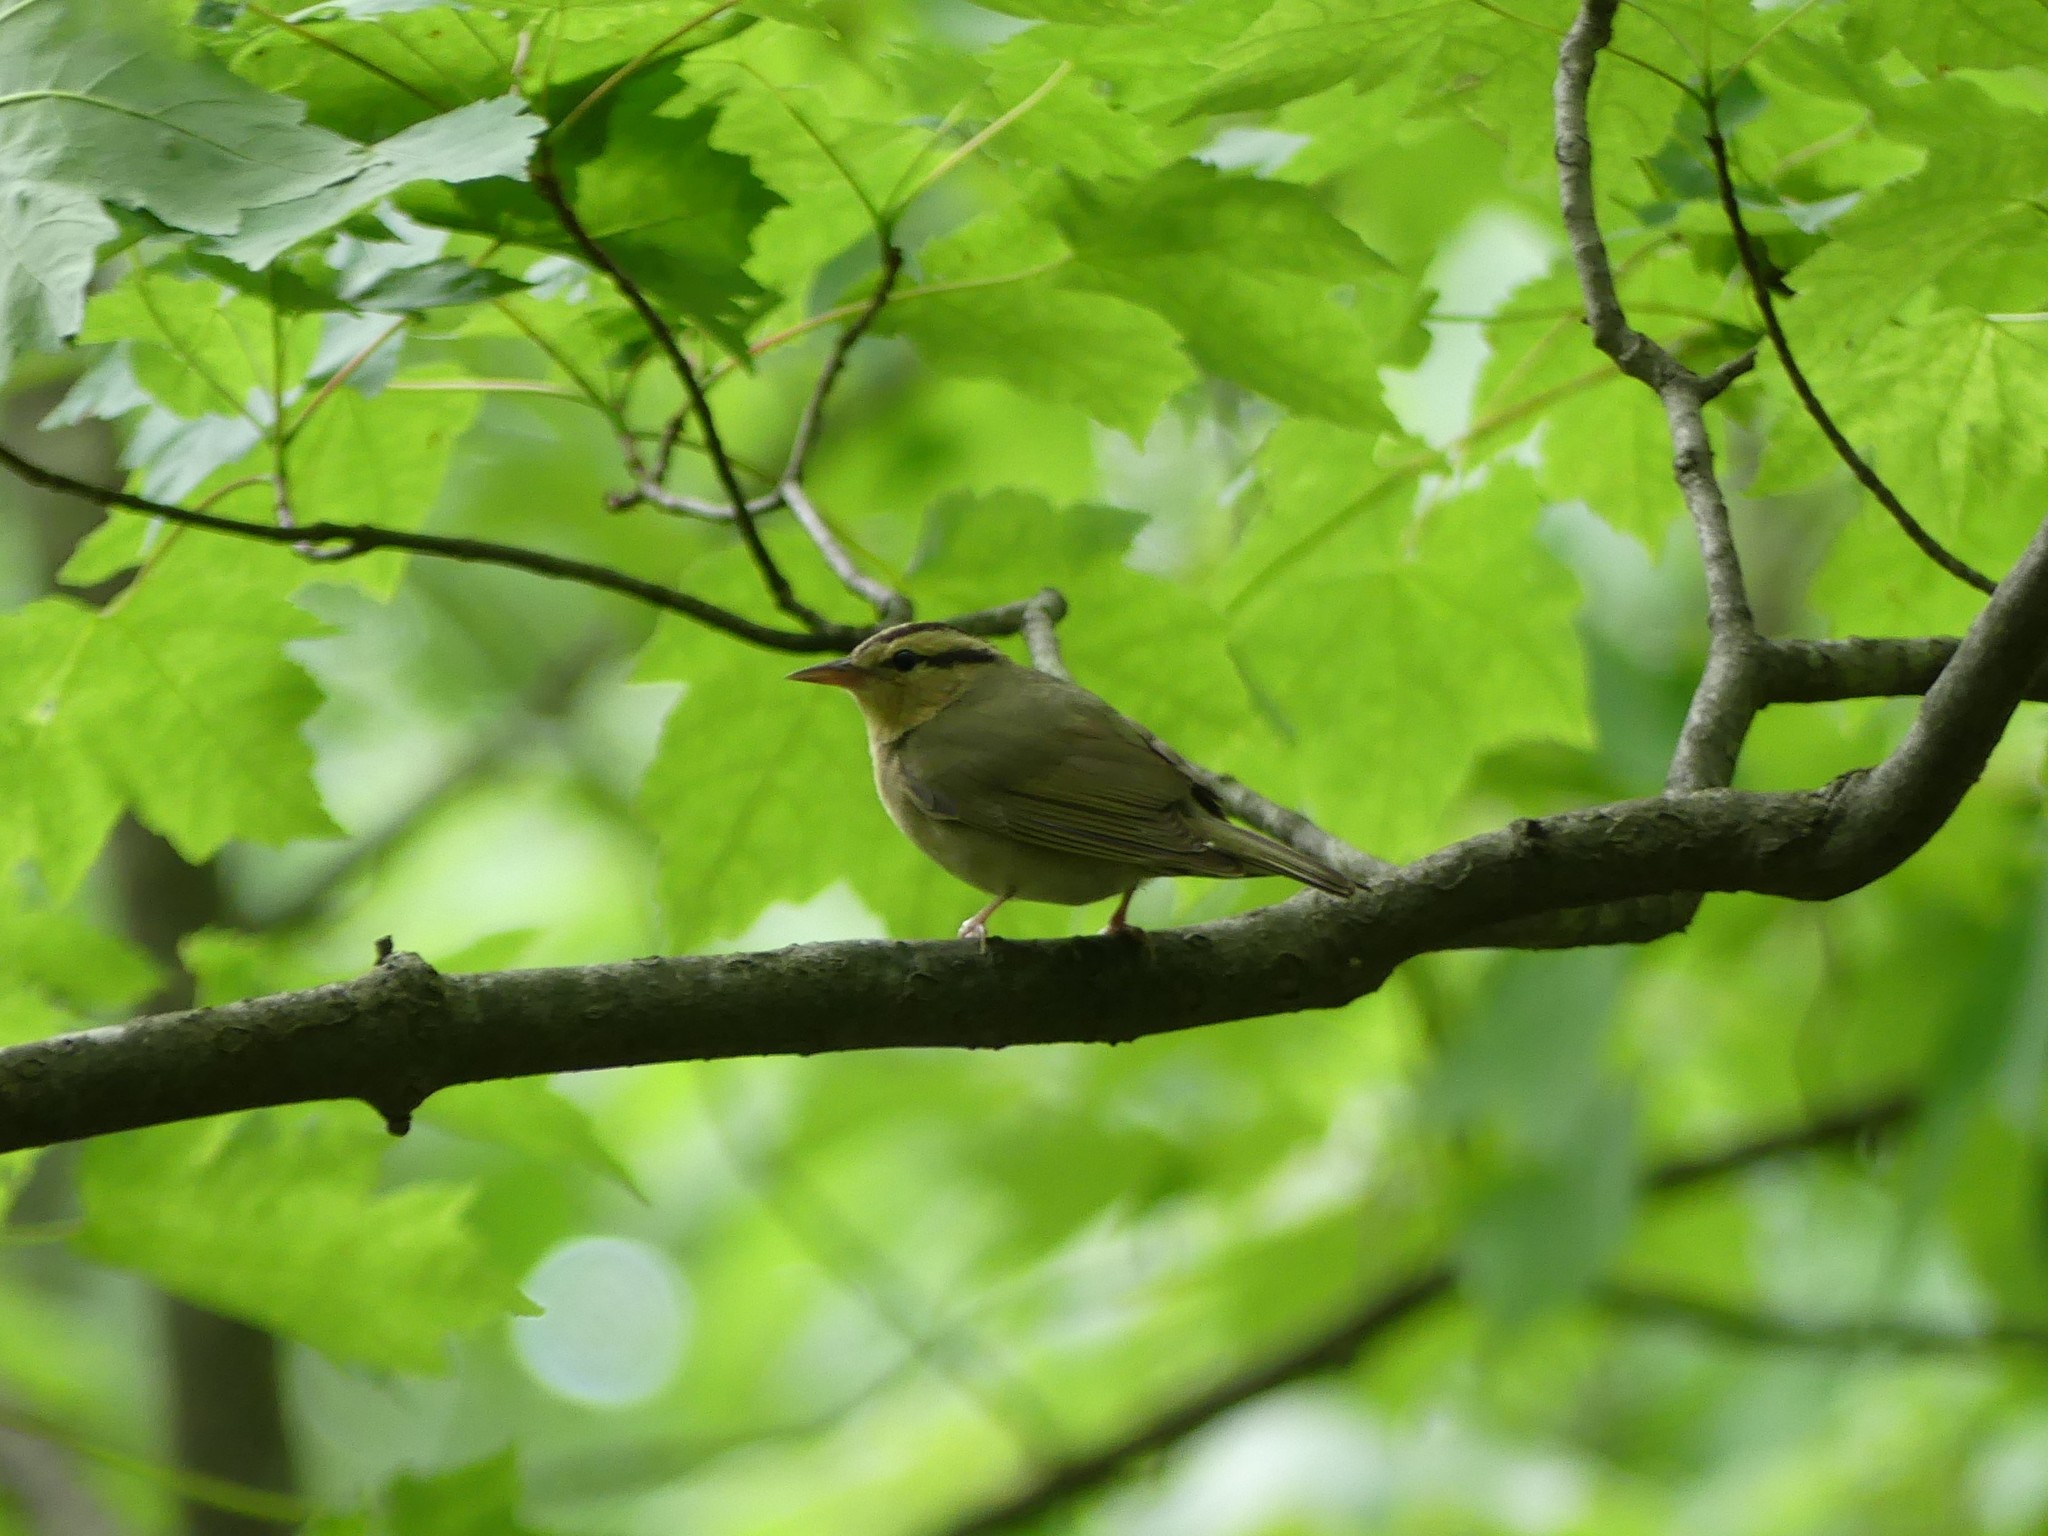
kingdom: Animalia
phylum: Chordata
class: Aves
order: Passeriformes
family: Parulidae
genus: Helmitheros
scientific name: Helmitheros vermivorum
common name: Worm-eating warbler
